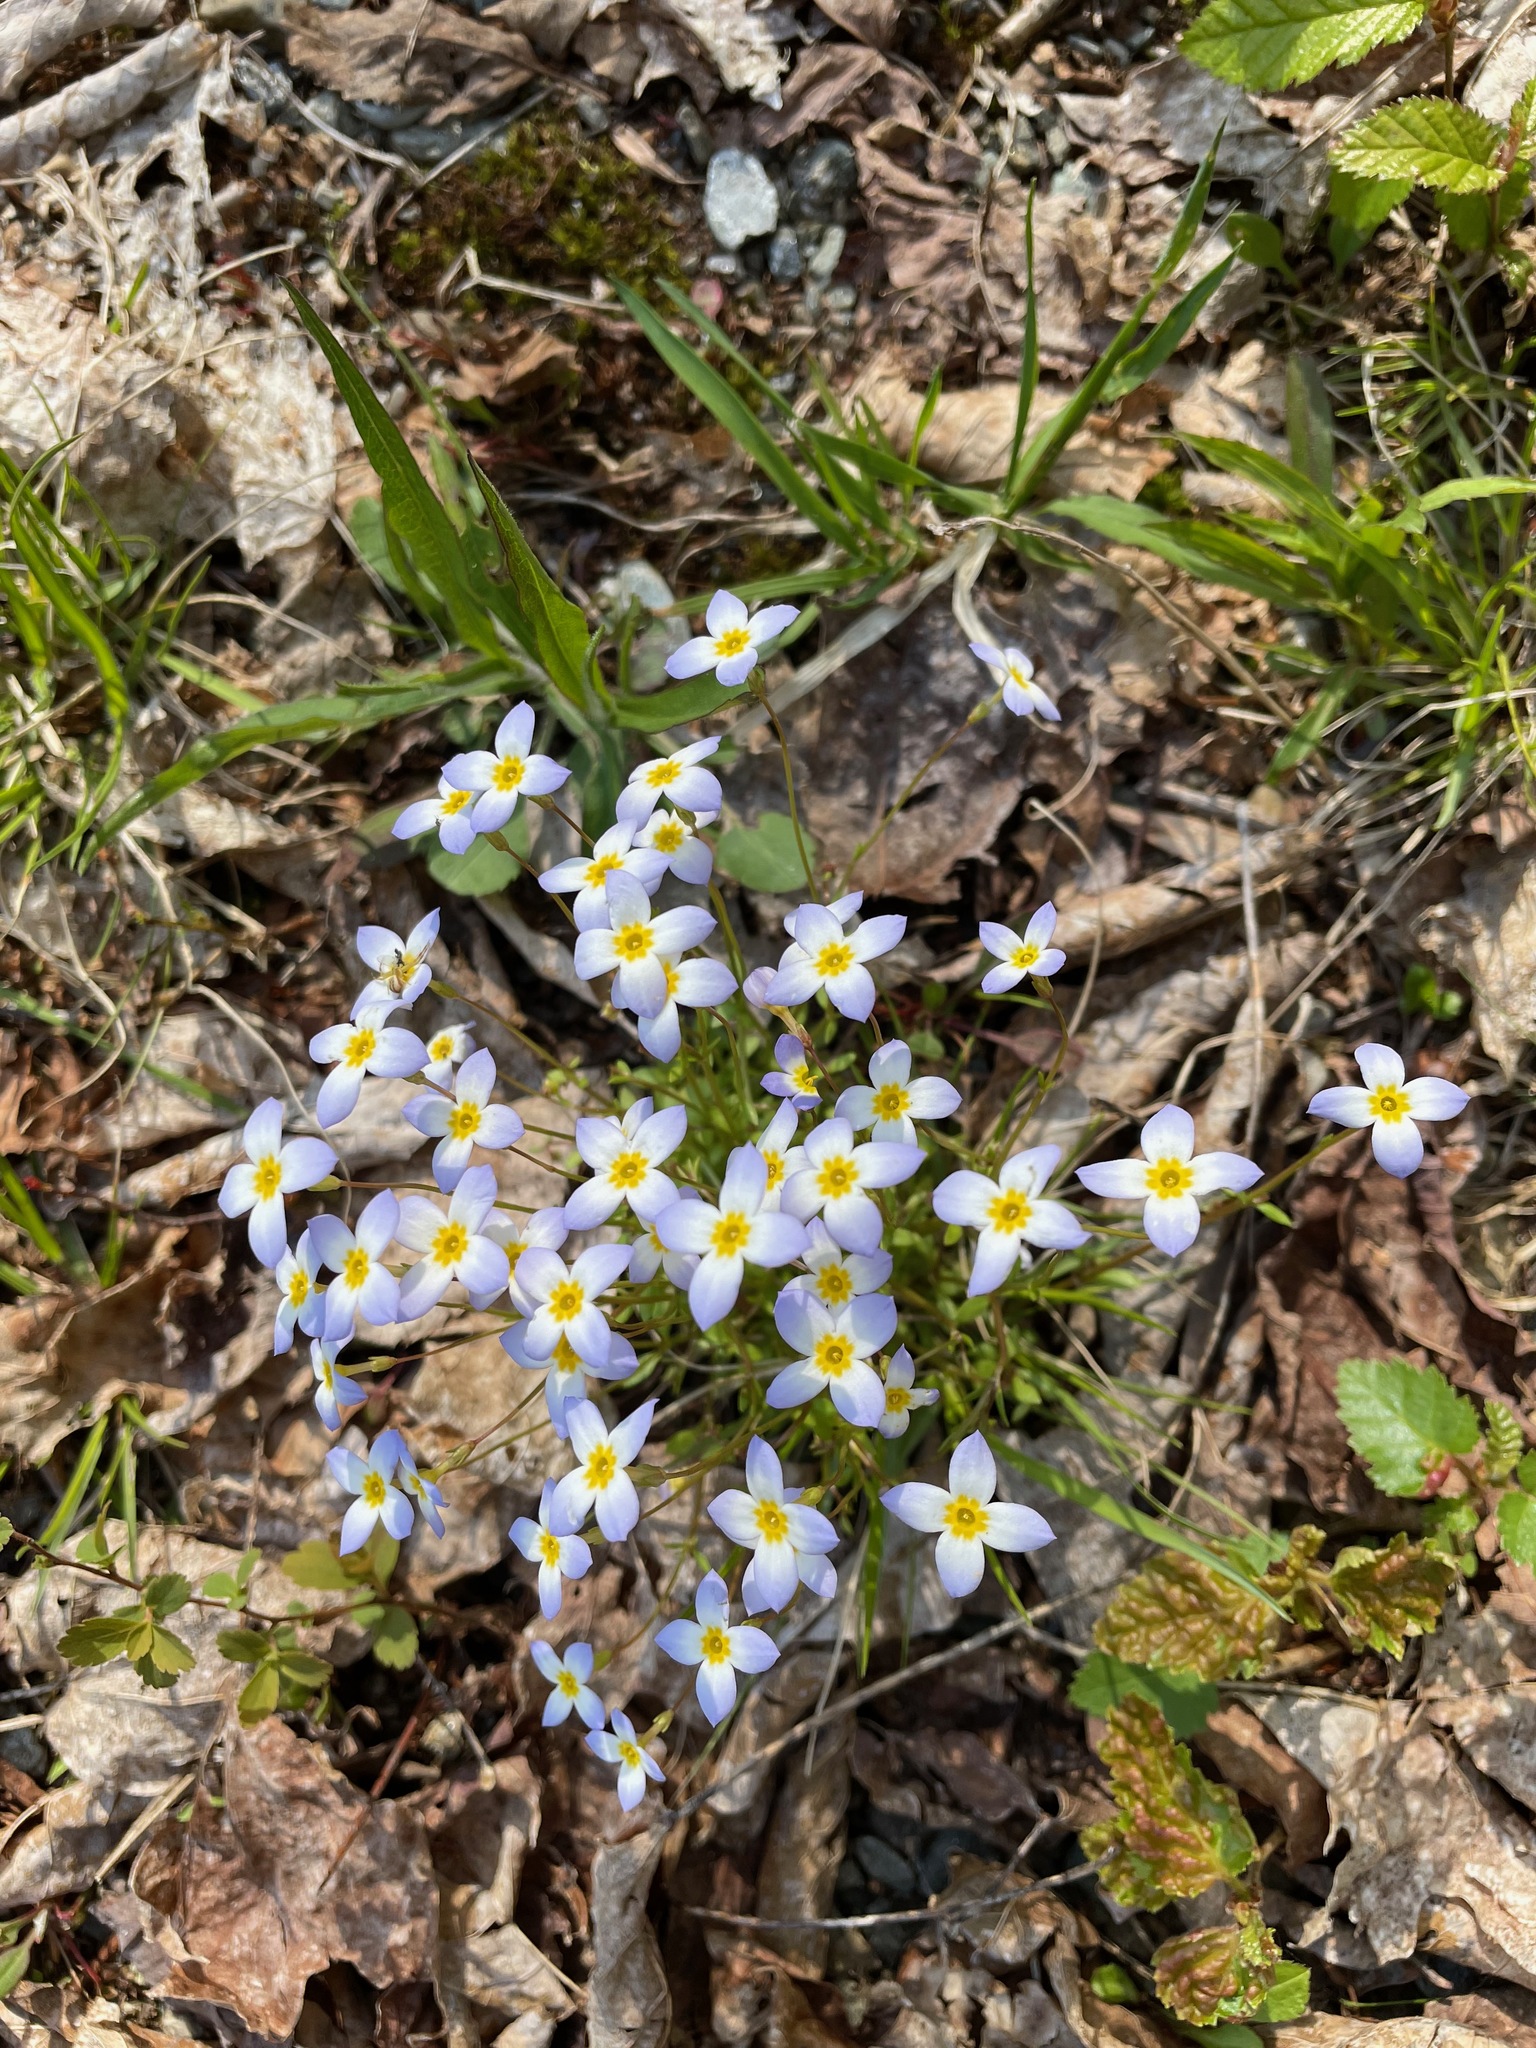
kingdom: Plantae
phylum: Tracheophyta
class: Magnoliopsida
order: Gentianales
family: Rubiaceae
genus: Houstonia
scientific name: Houstonia caerulea
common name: Bluets
